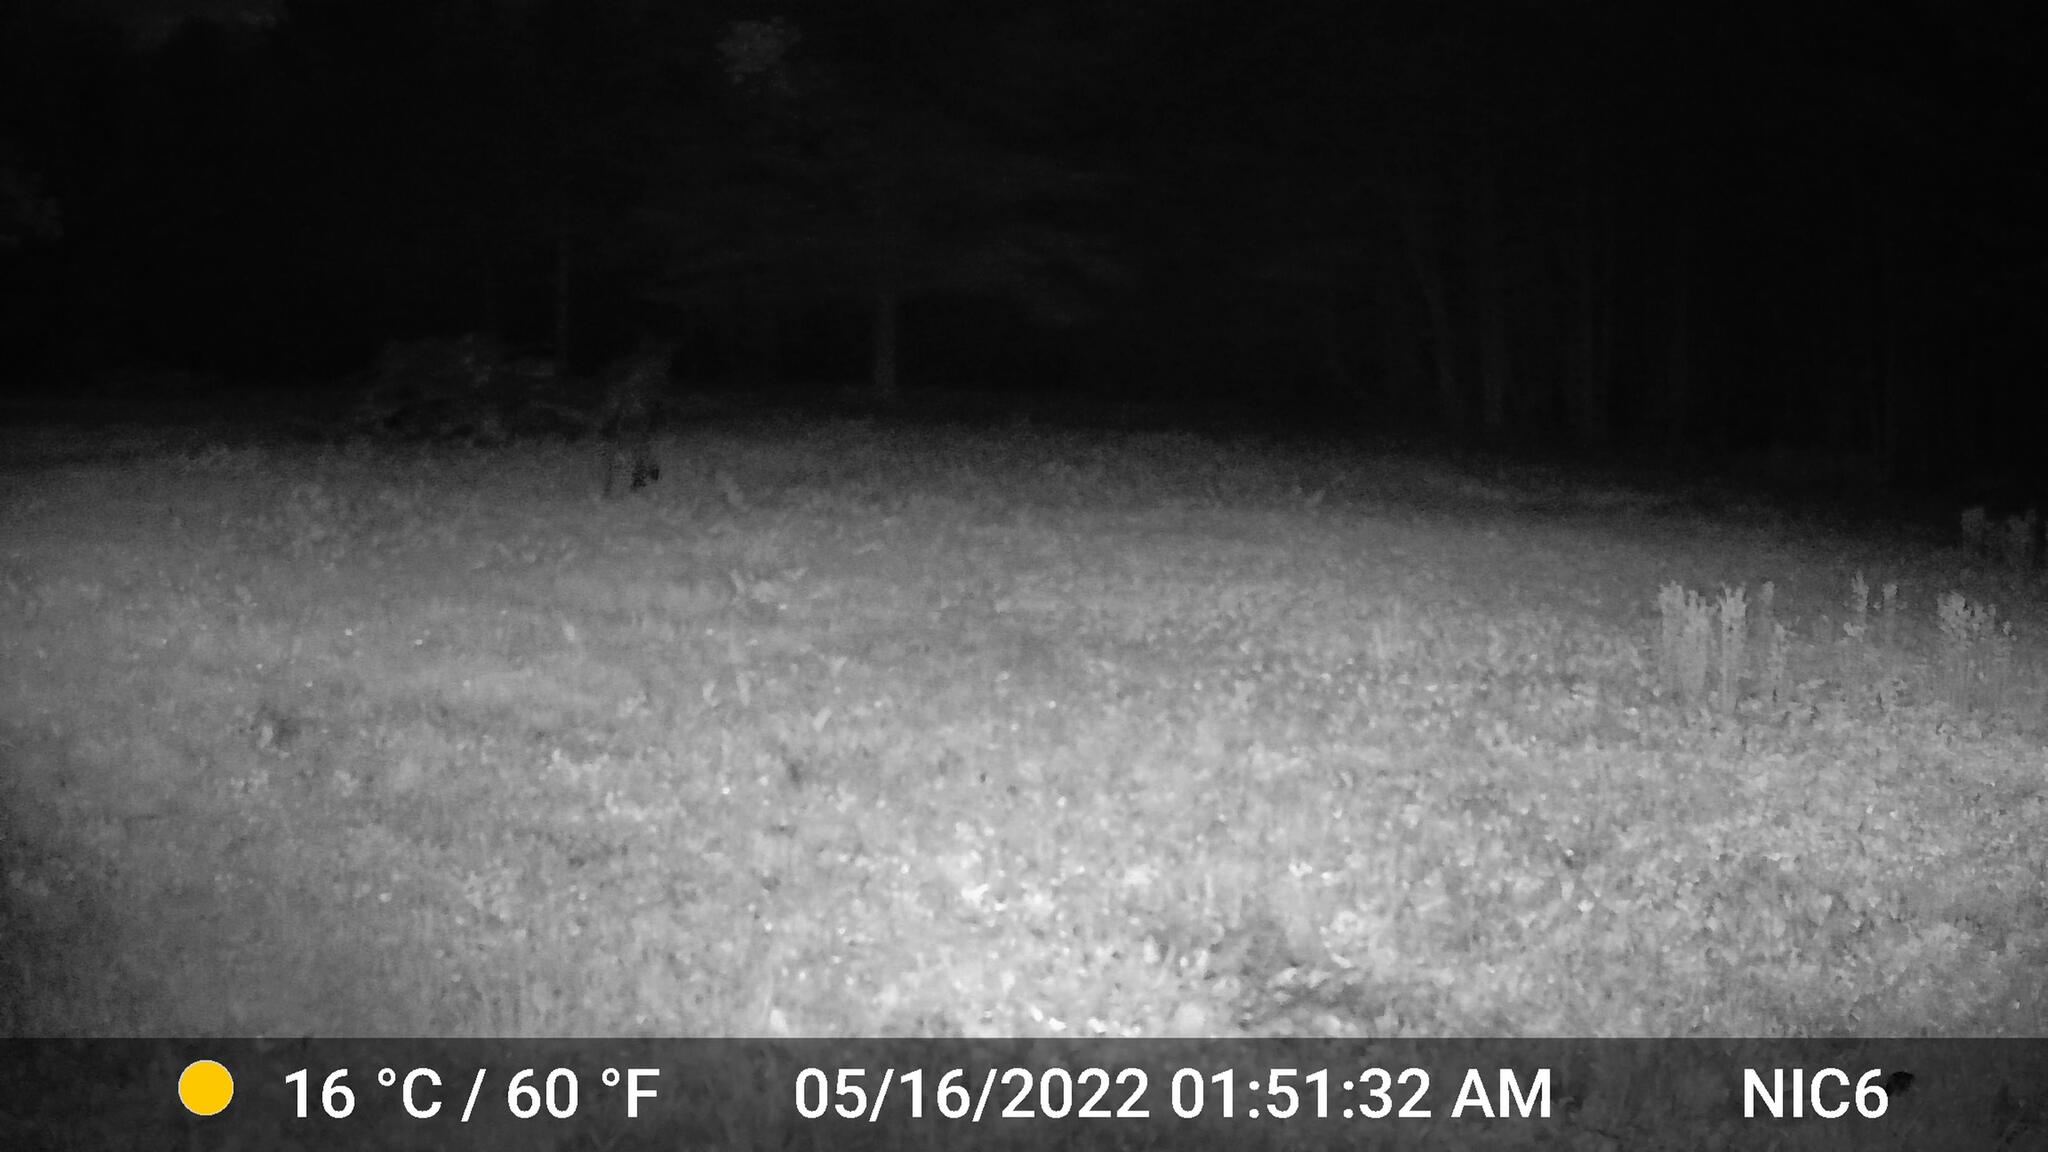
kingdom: Animalia
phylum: Chordata
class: Mammalia
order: Artiodactyla
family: Cervidae
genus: Alces
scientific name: Alces alces
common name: Moose
